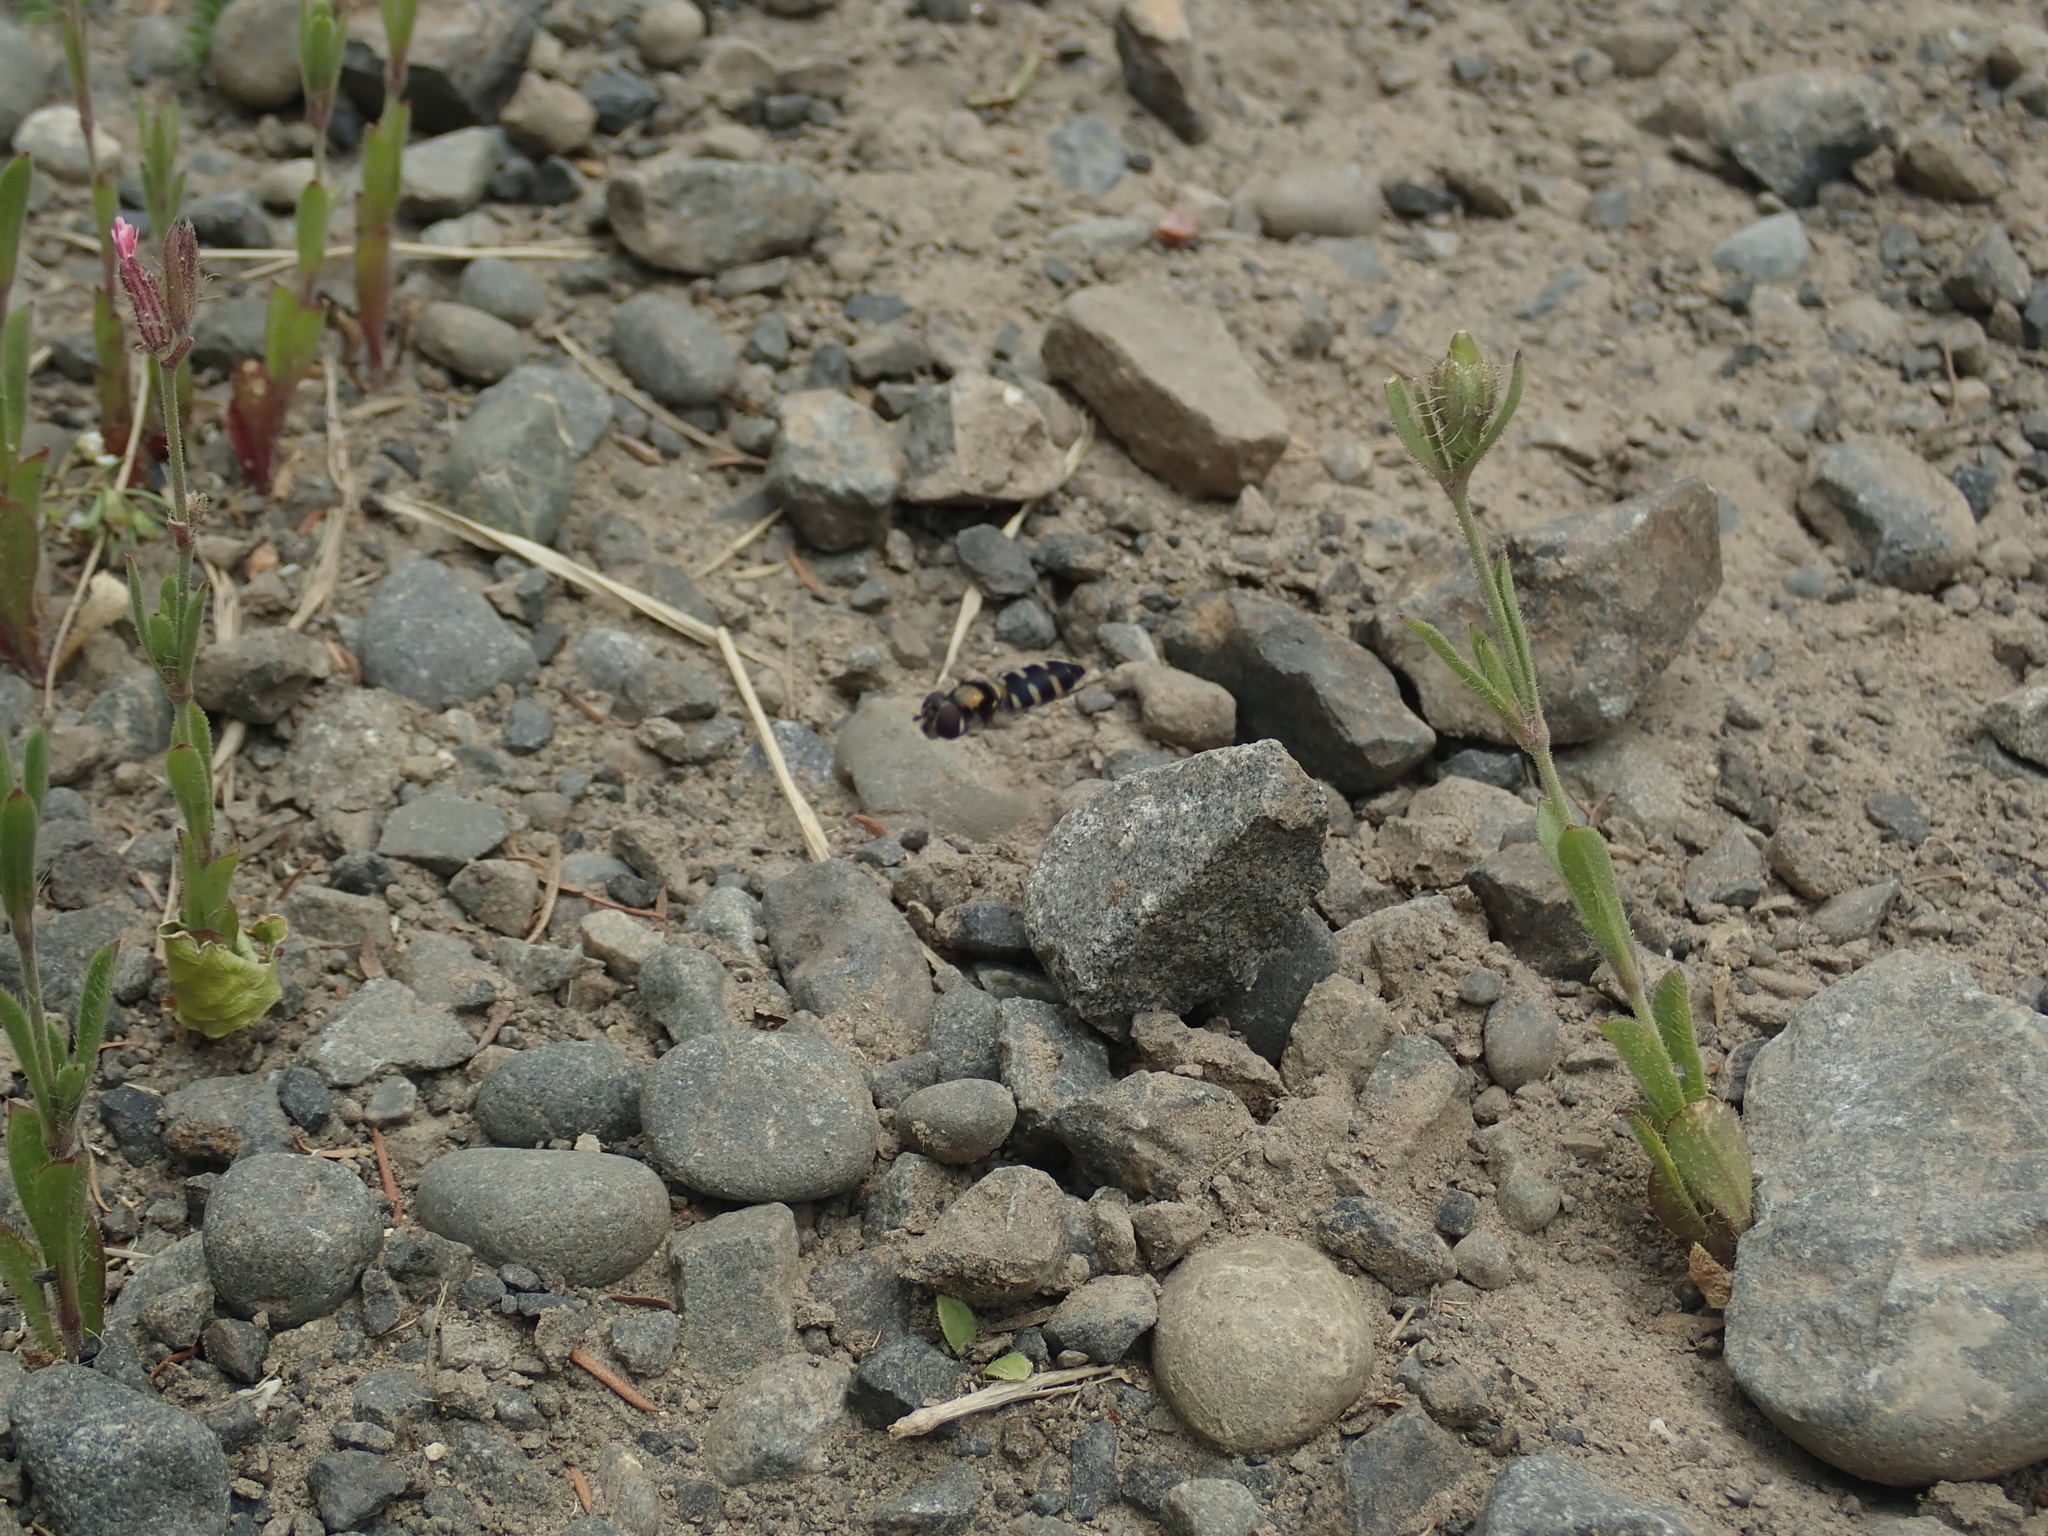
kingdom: Animalia
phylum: Arthropoda
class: Insecta
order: Diptera
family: Syrphidae
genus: Melangyna
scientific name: Melangyna novaezelandiae
